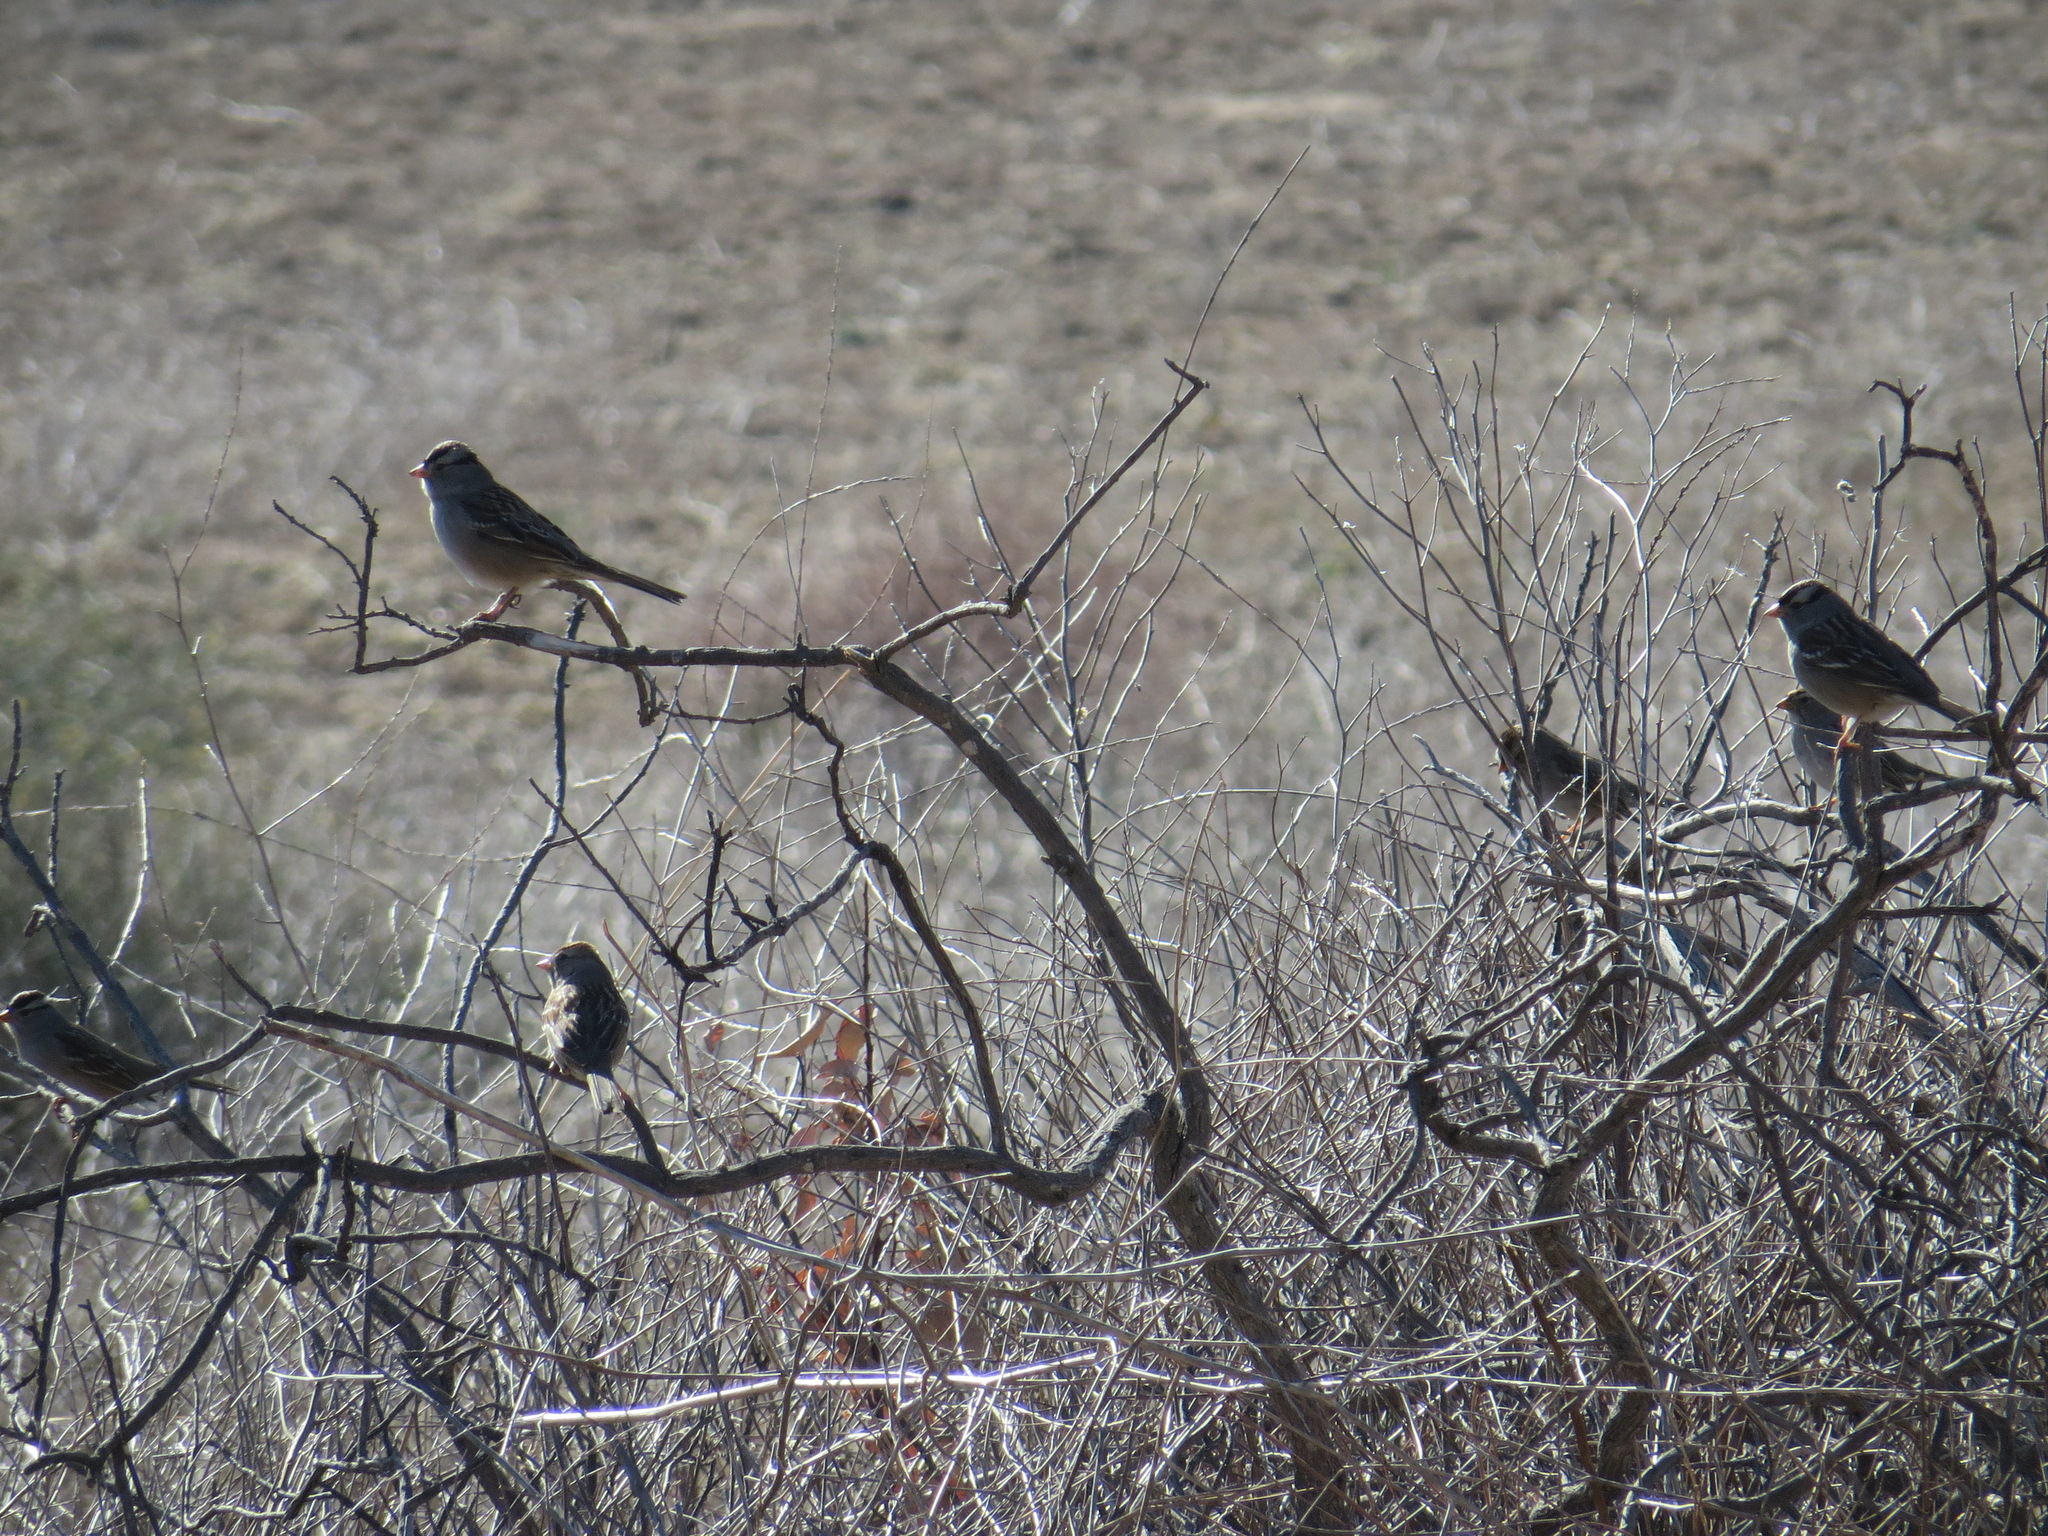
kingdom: Animalia
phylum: Chordata
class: Aves
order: Passeriformes
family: Passerellidae
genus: Zonotrichia
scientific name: Zonotrichia leucophrys
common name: White-crowned sparrow
